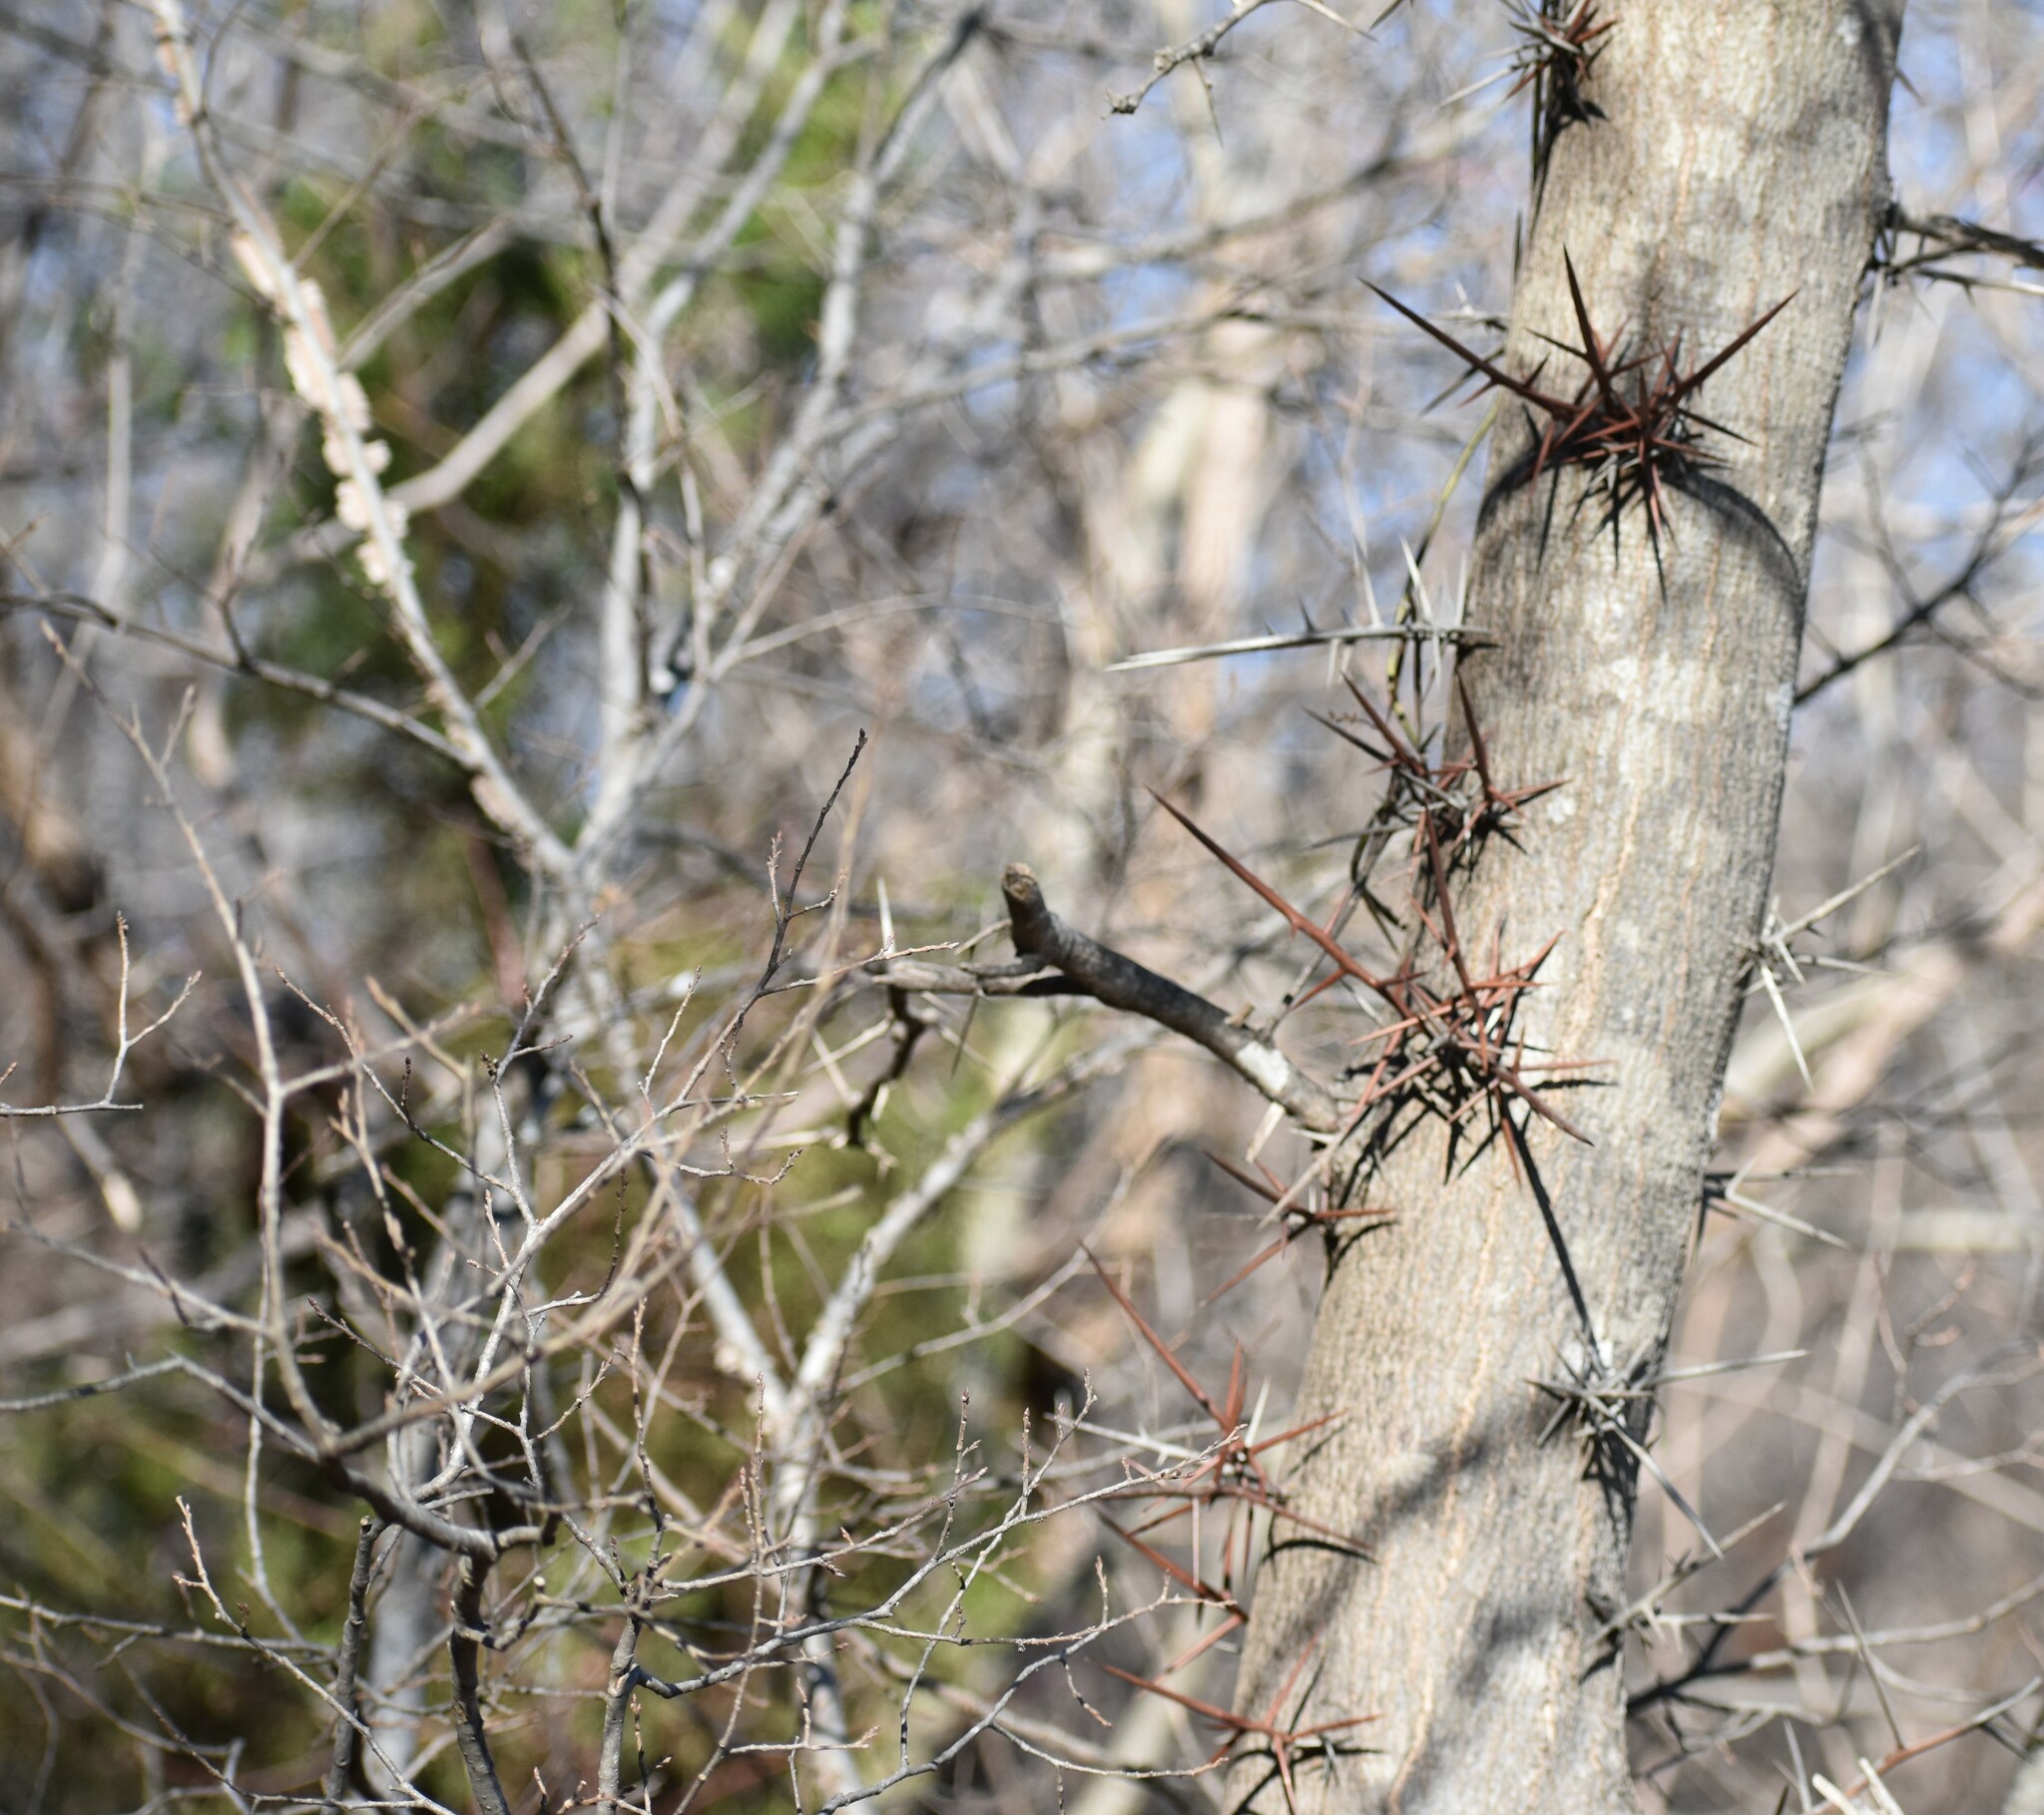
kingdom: Plantae
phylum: Tracheophyta
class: Magnoliopsida
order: Fabales
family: Fabaceae
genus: Gleditsia
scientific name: Gleditsia triacanthos
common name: Common honeylocust
